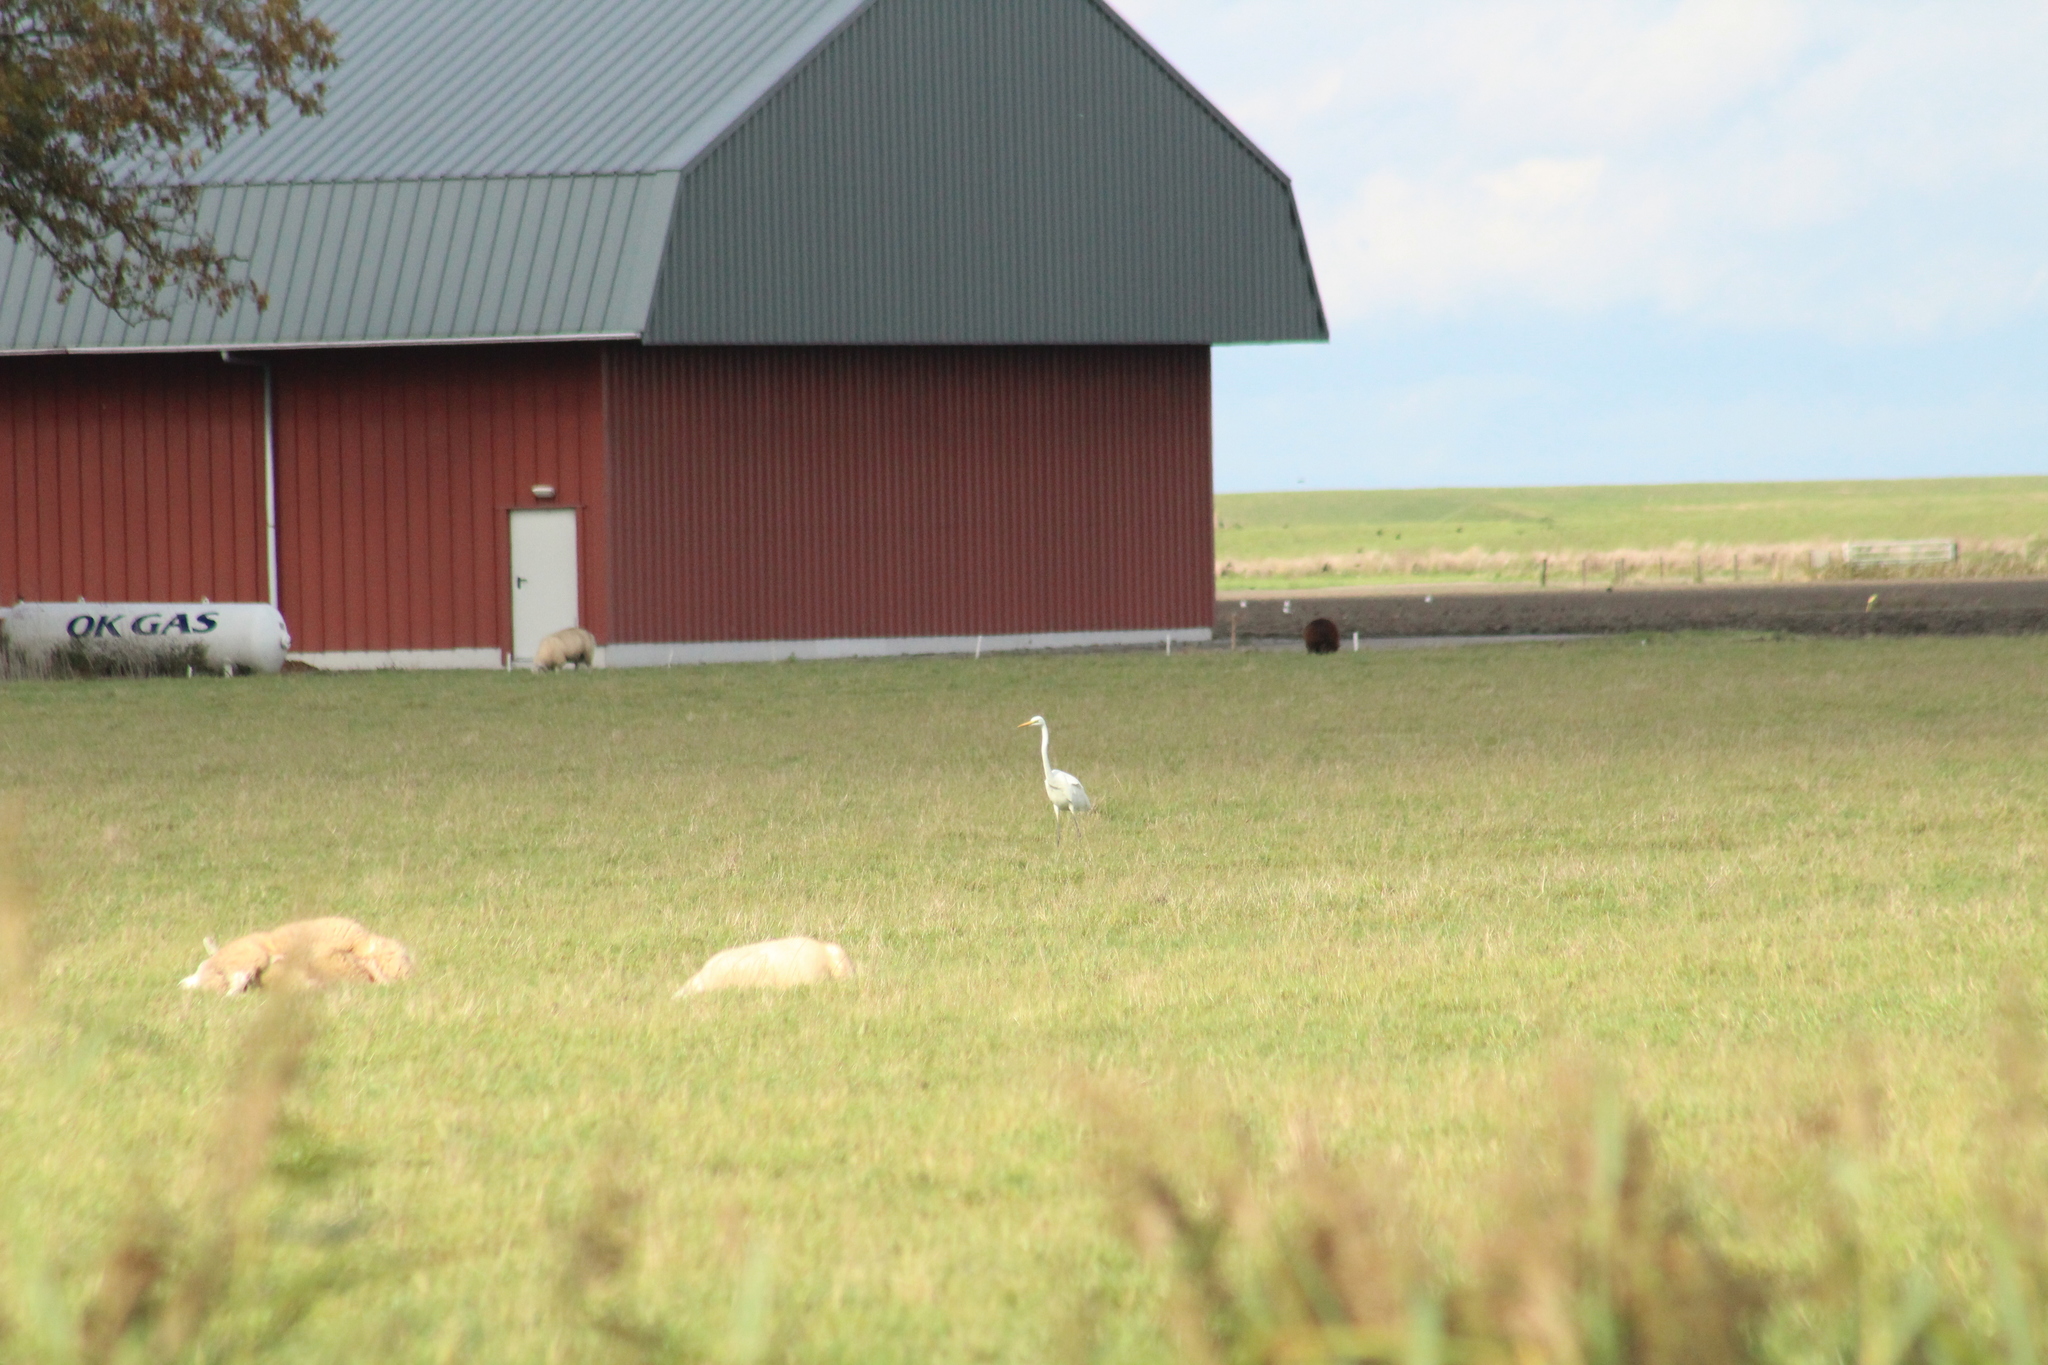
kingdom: Animalia
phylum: Chordata
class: Aves
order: Pelecaniformes
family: Ardeidae
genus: Ardea
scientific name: Ardea alba
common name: Great egret
